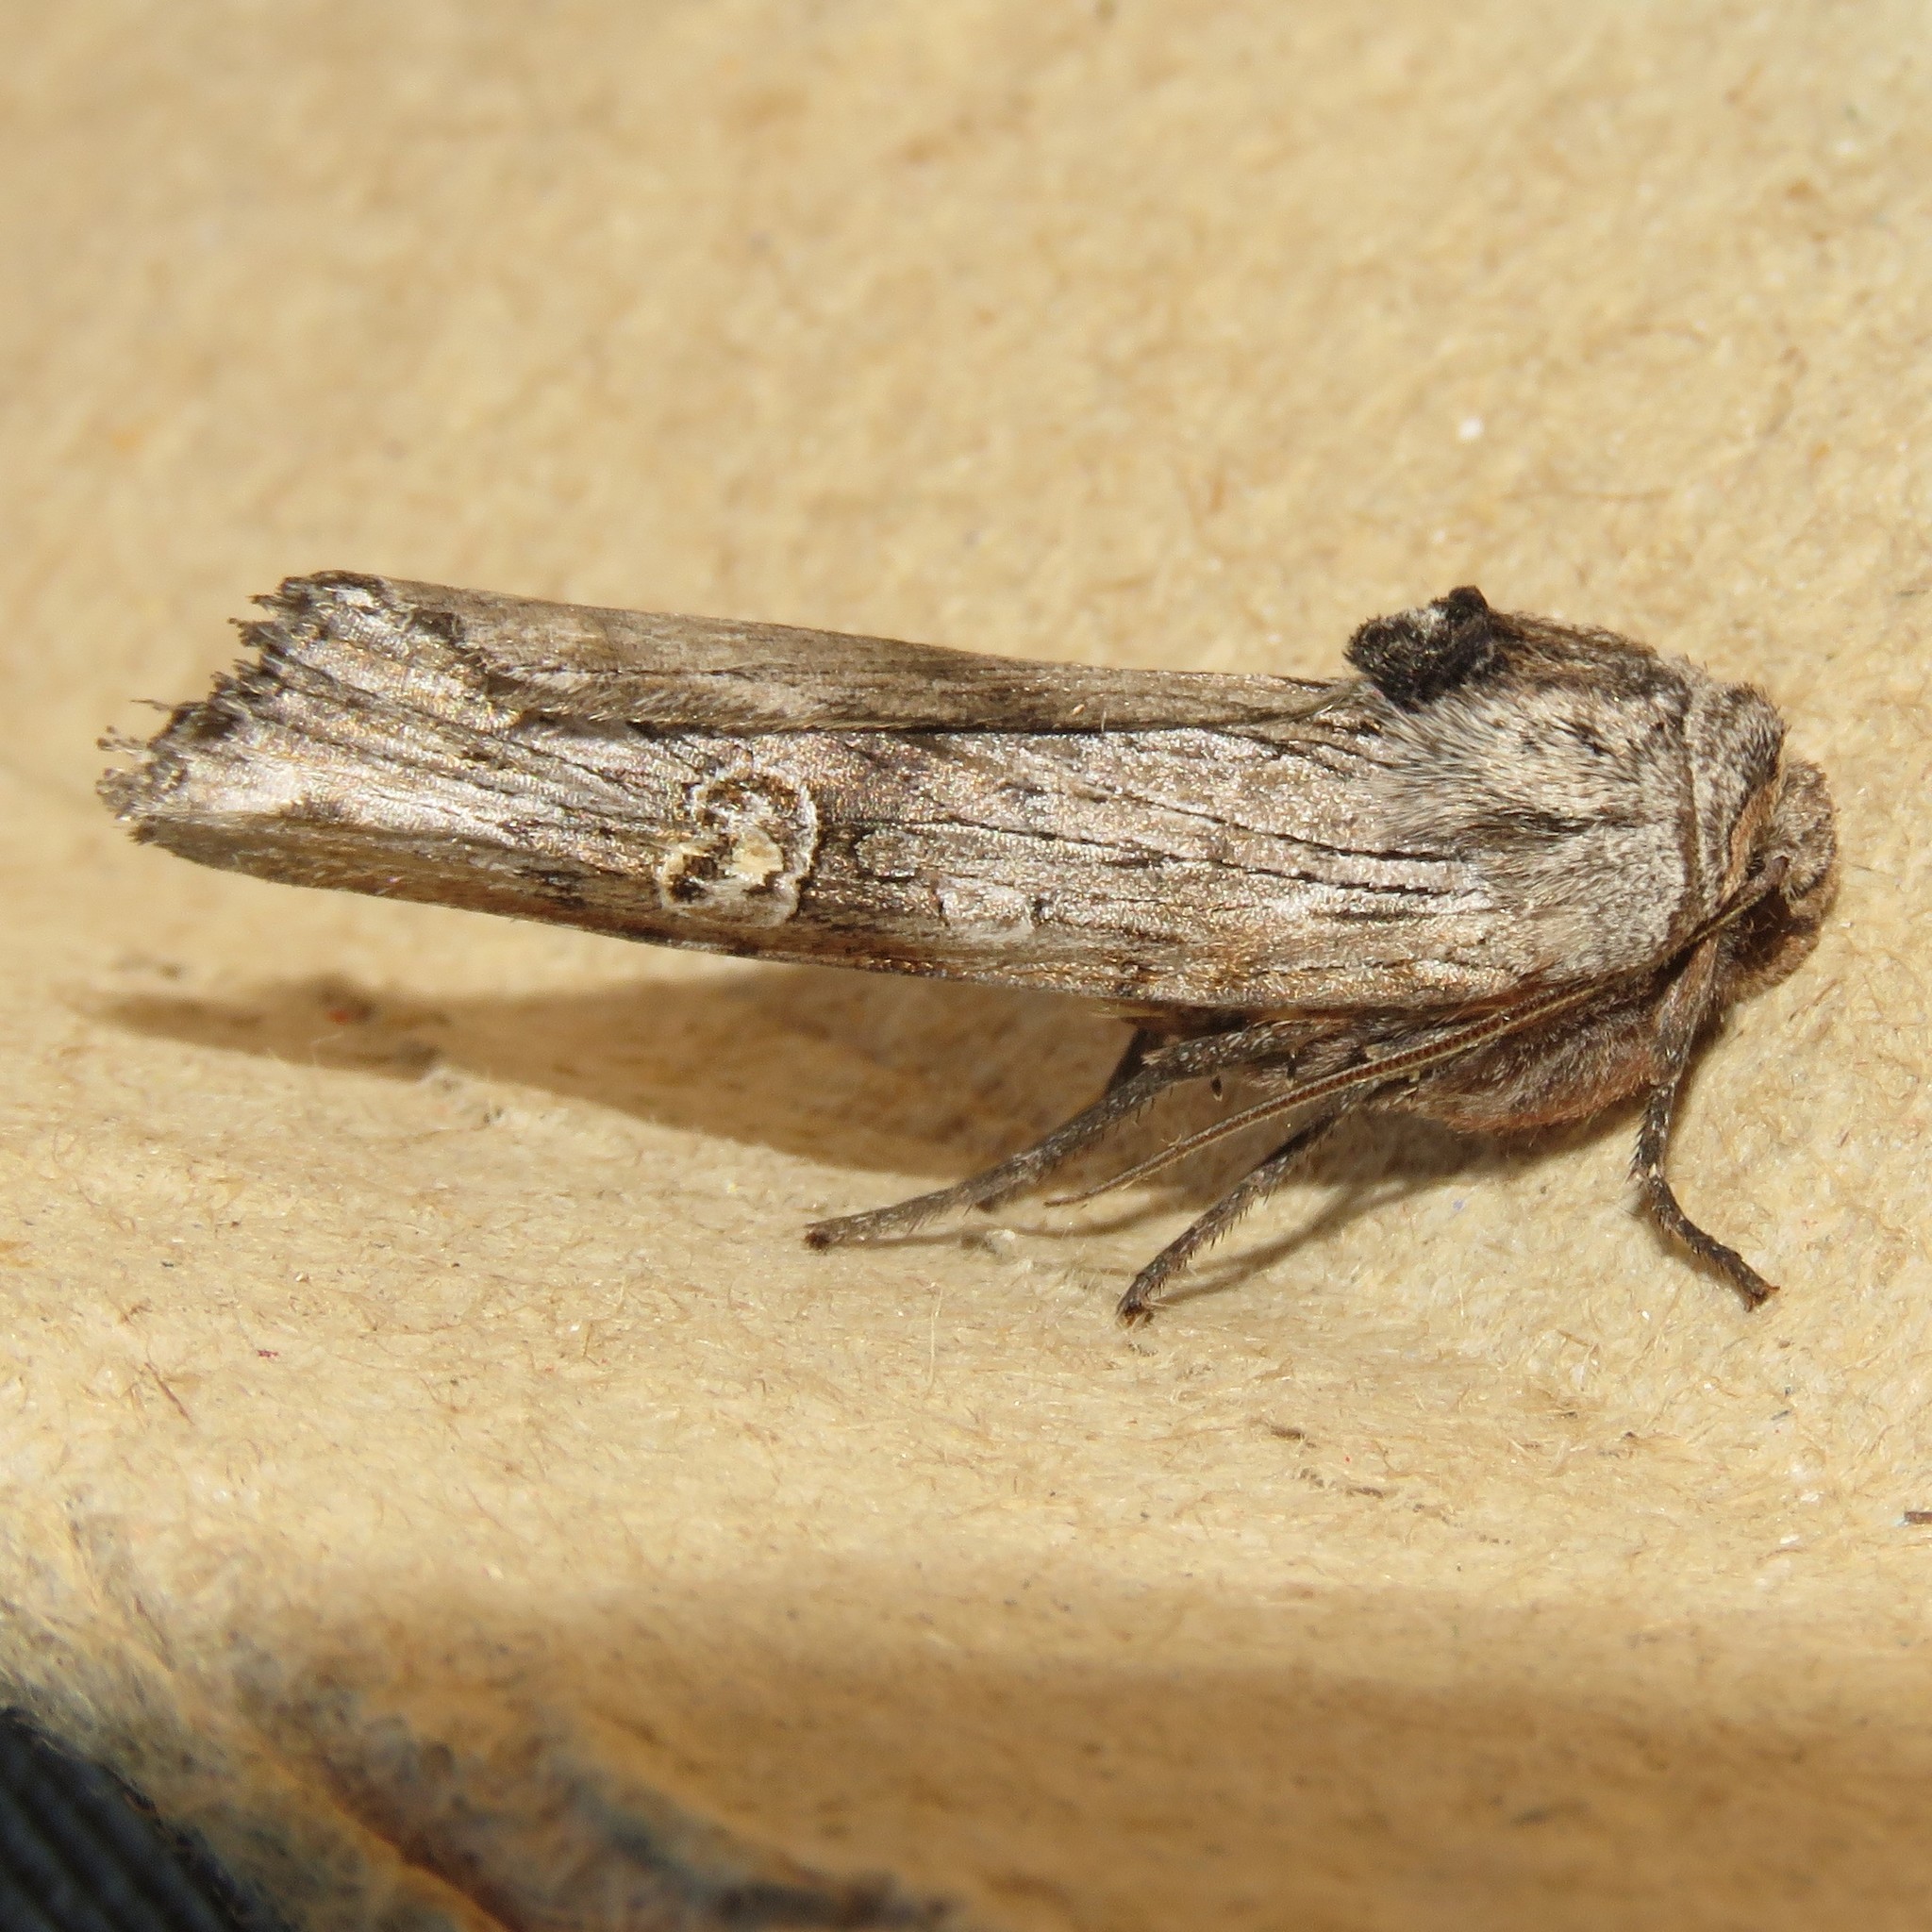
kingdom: Animalia
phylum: Arthropoda
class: Insecta
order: Lepidoptera
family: Noctuidae
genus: Xylena
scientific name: Xylena germana
